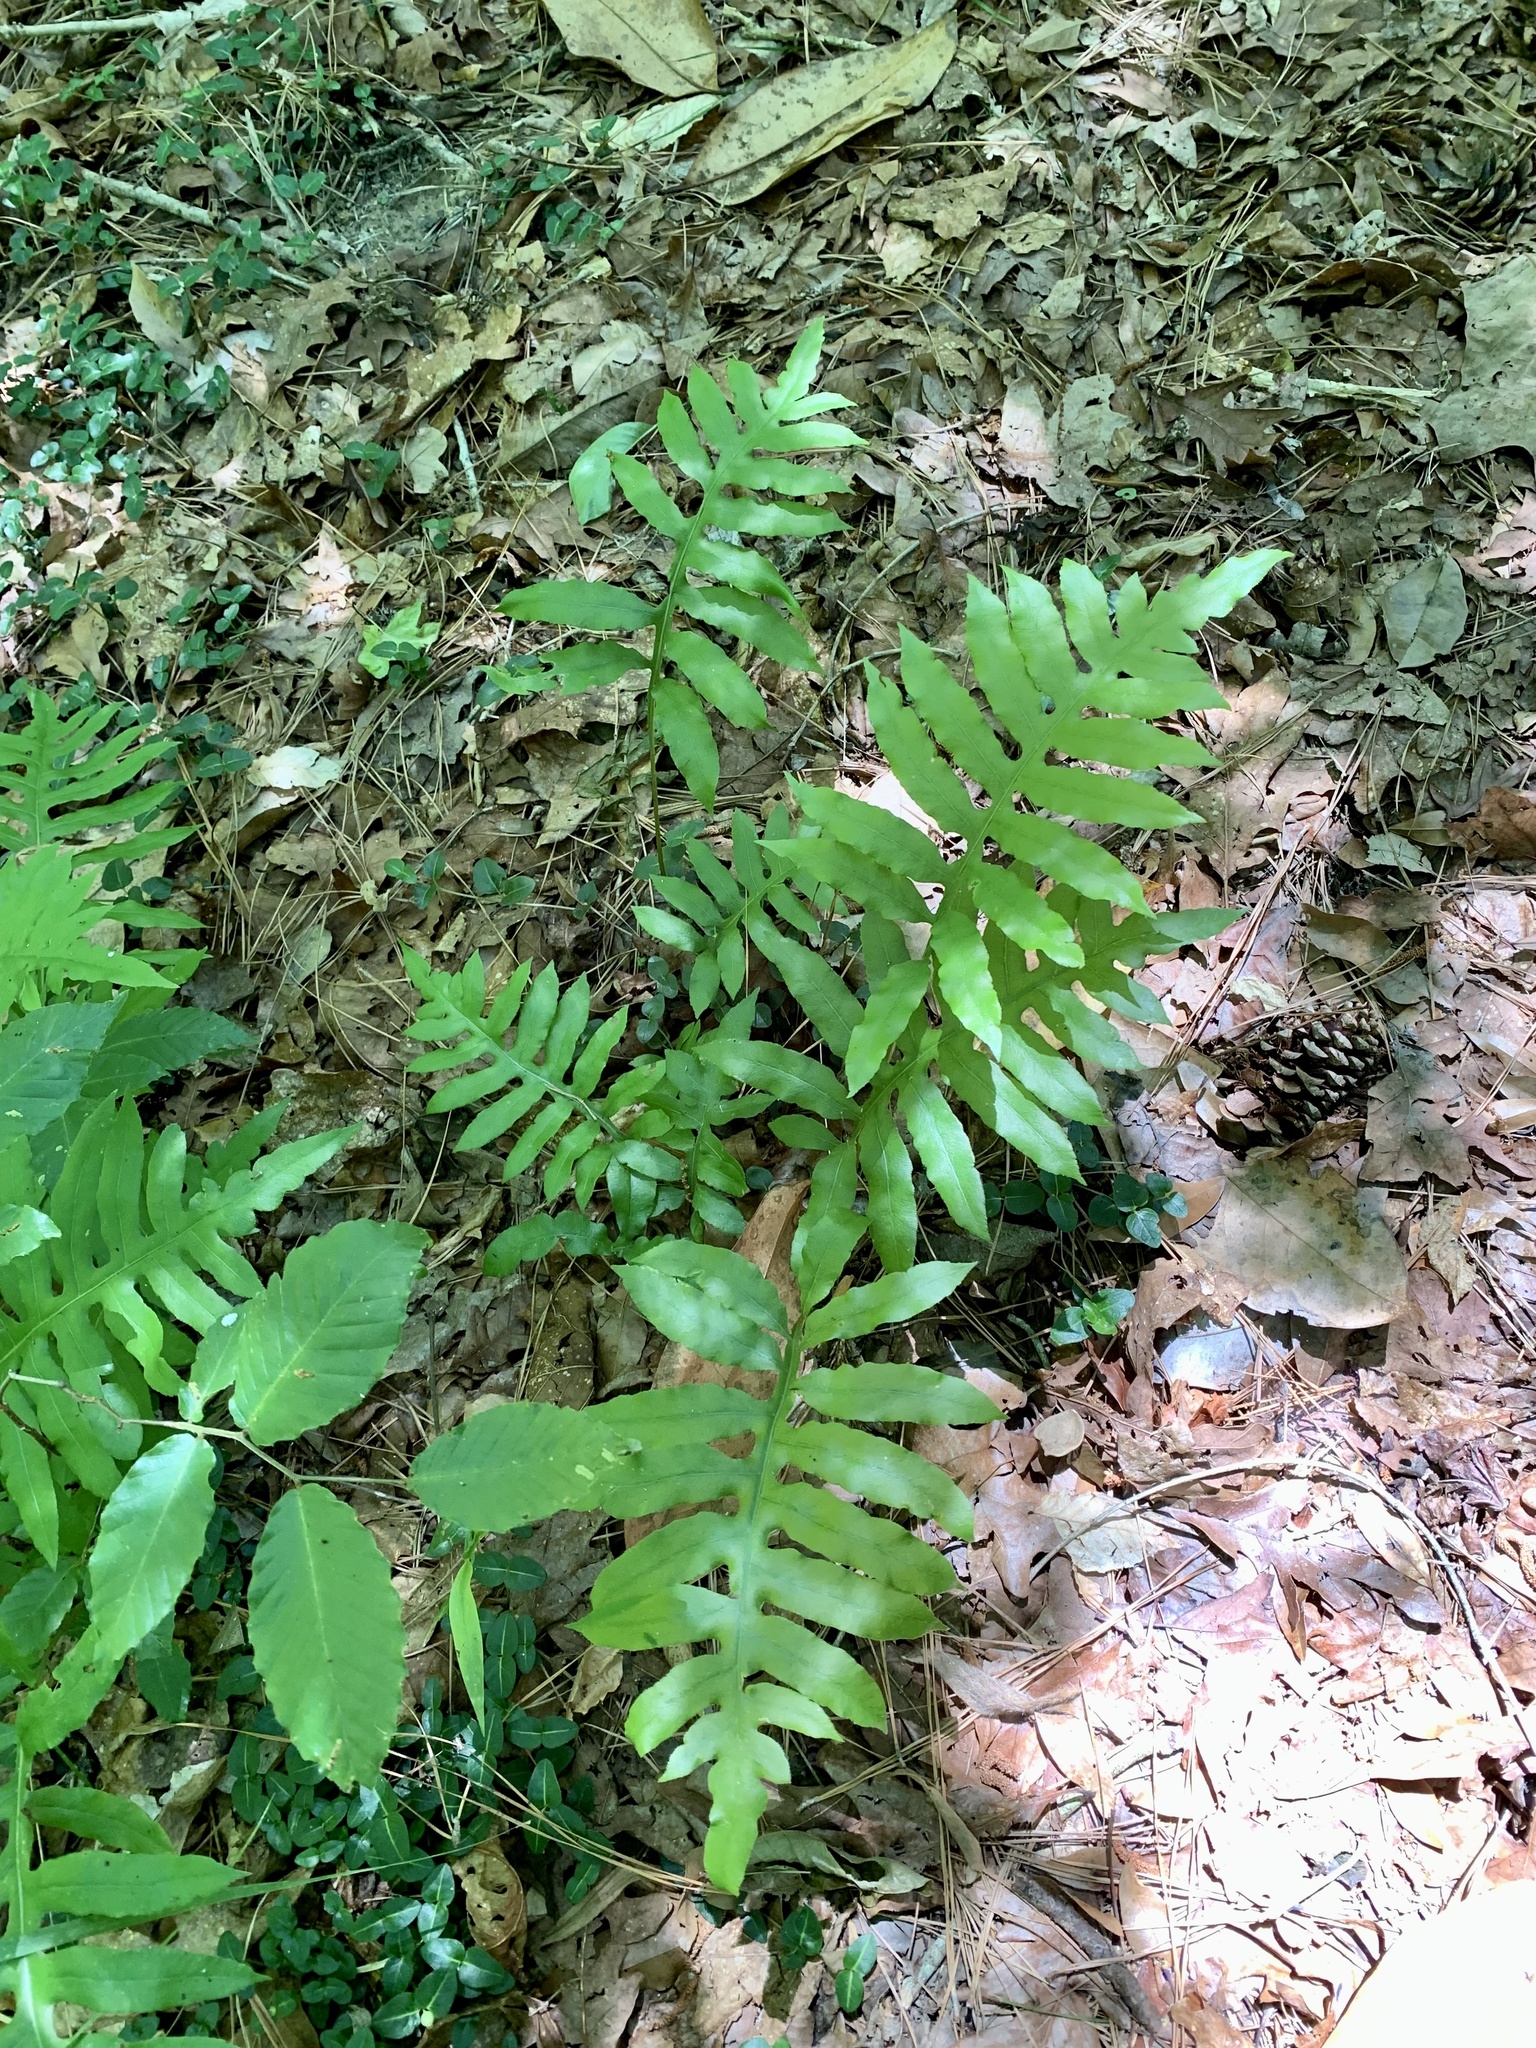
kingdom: Plantae
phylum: Tracheophyta
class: Polypodiopsida
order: Polypodiales
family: Blechnaceae
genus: Lorinseria
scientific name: Lorinseria areolata
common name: Dwarf chain fern
